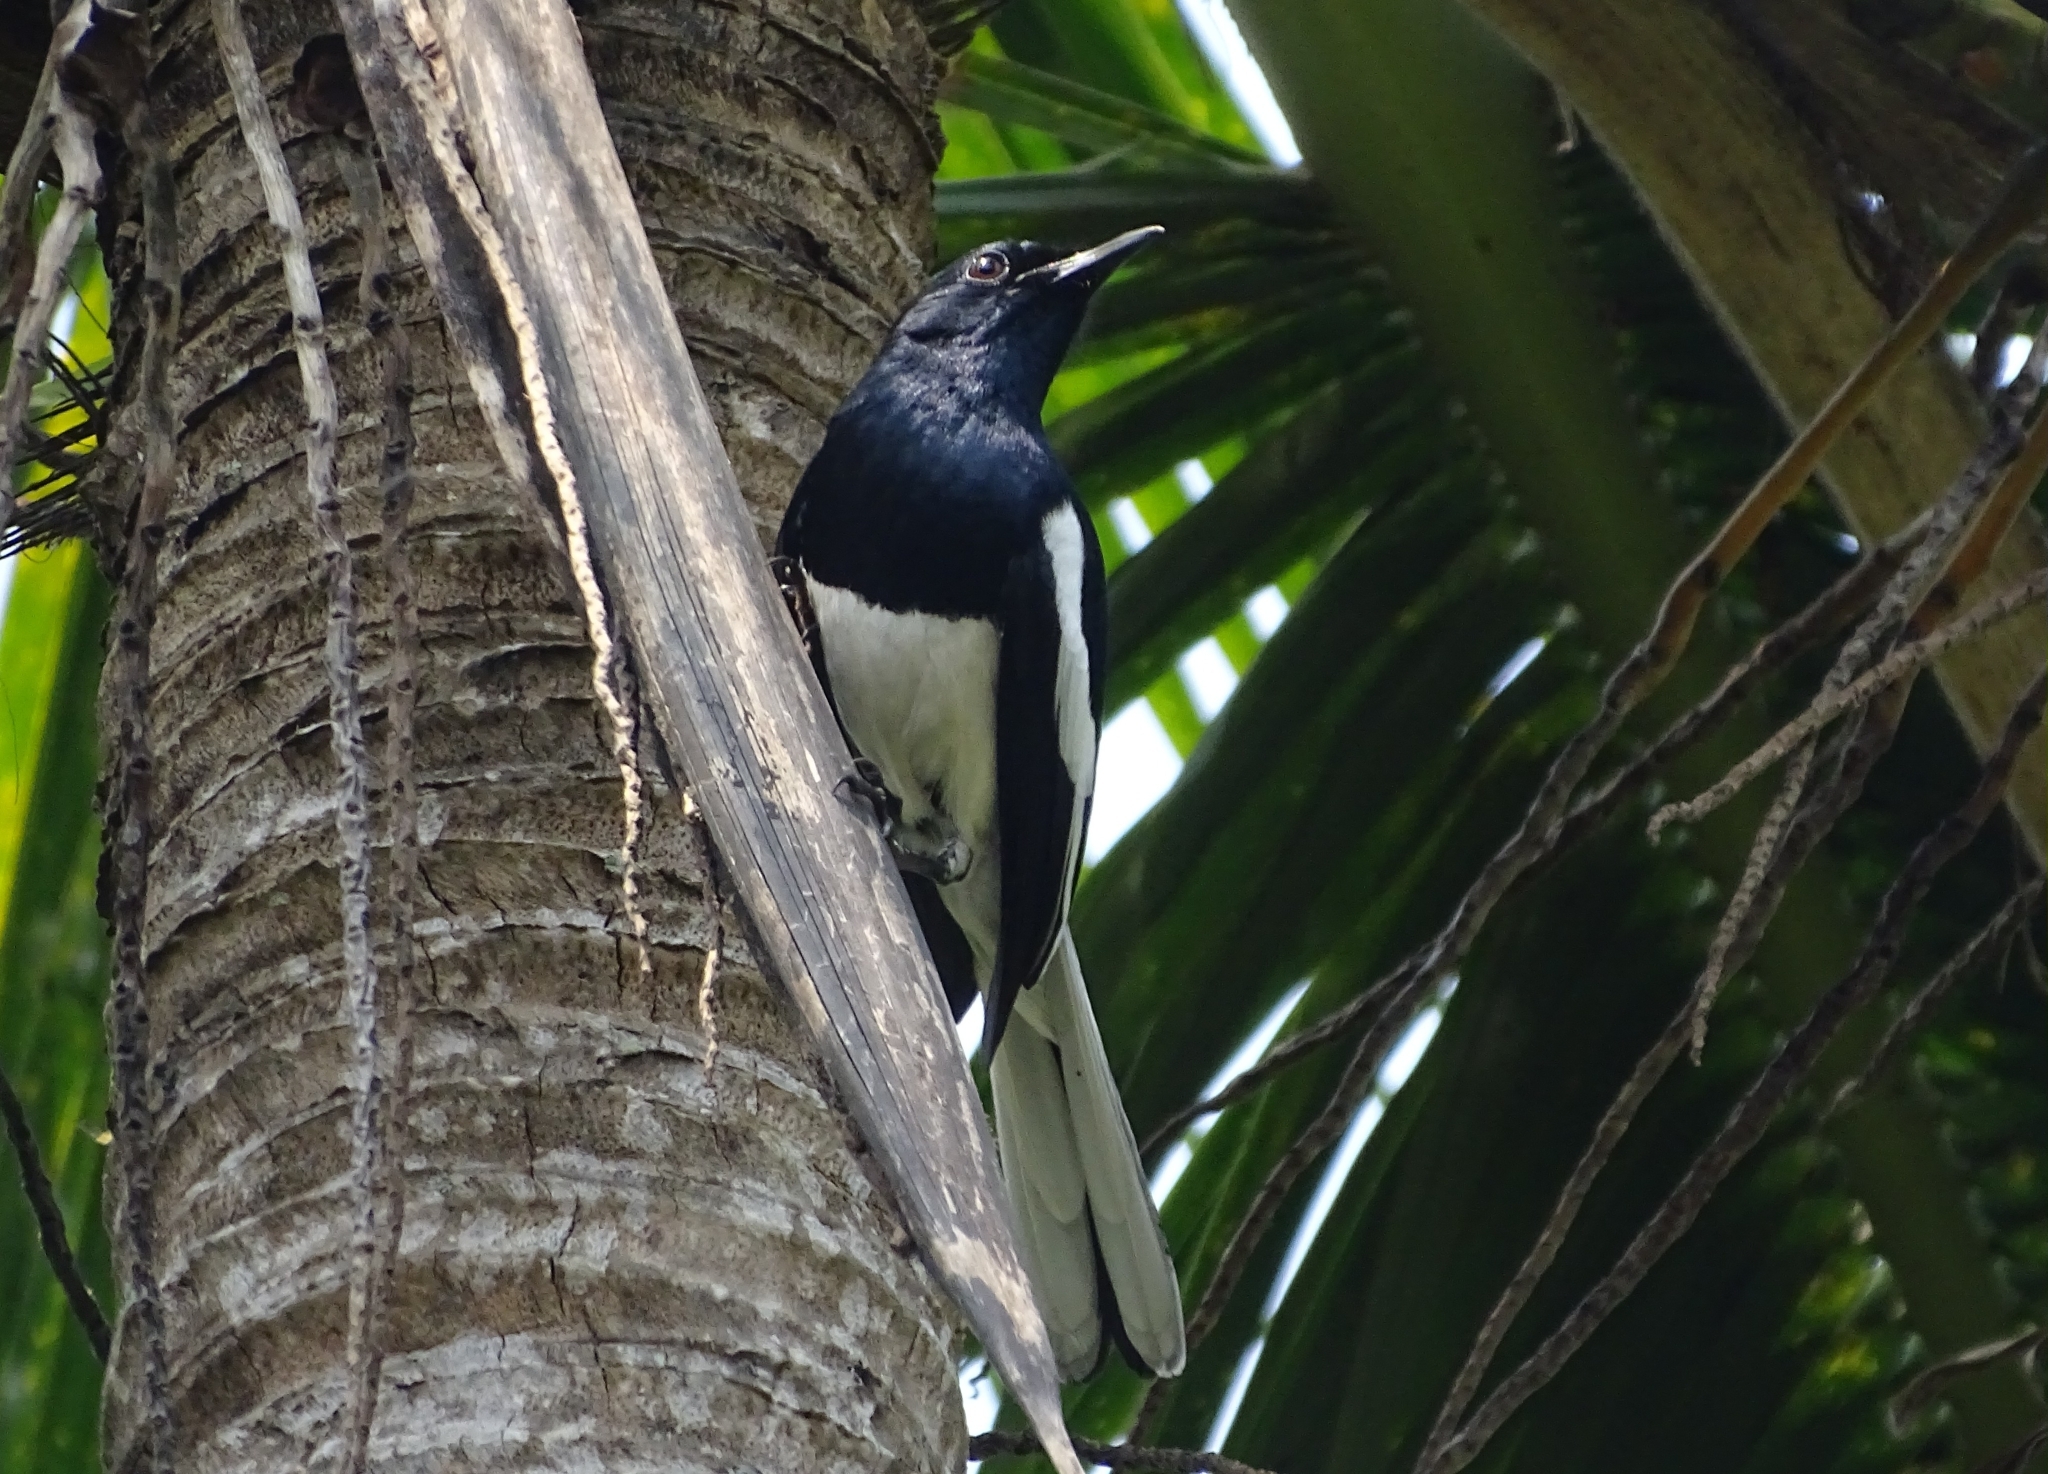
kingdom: Animalia
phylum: Chordata
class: Aves
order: Passeriformes
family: Muscicapidae
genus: Copsychus
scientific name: Copsychus saularis
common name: Oriental magpie-robin
